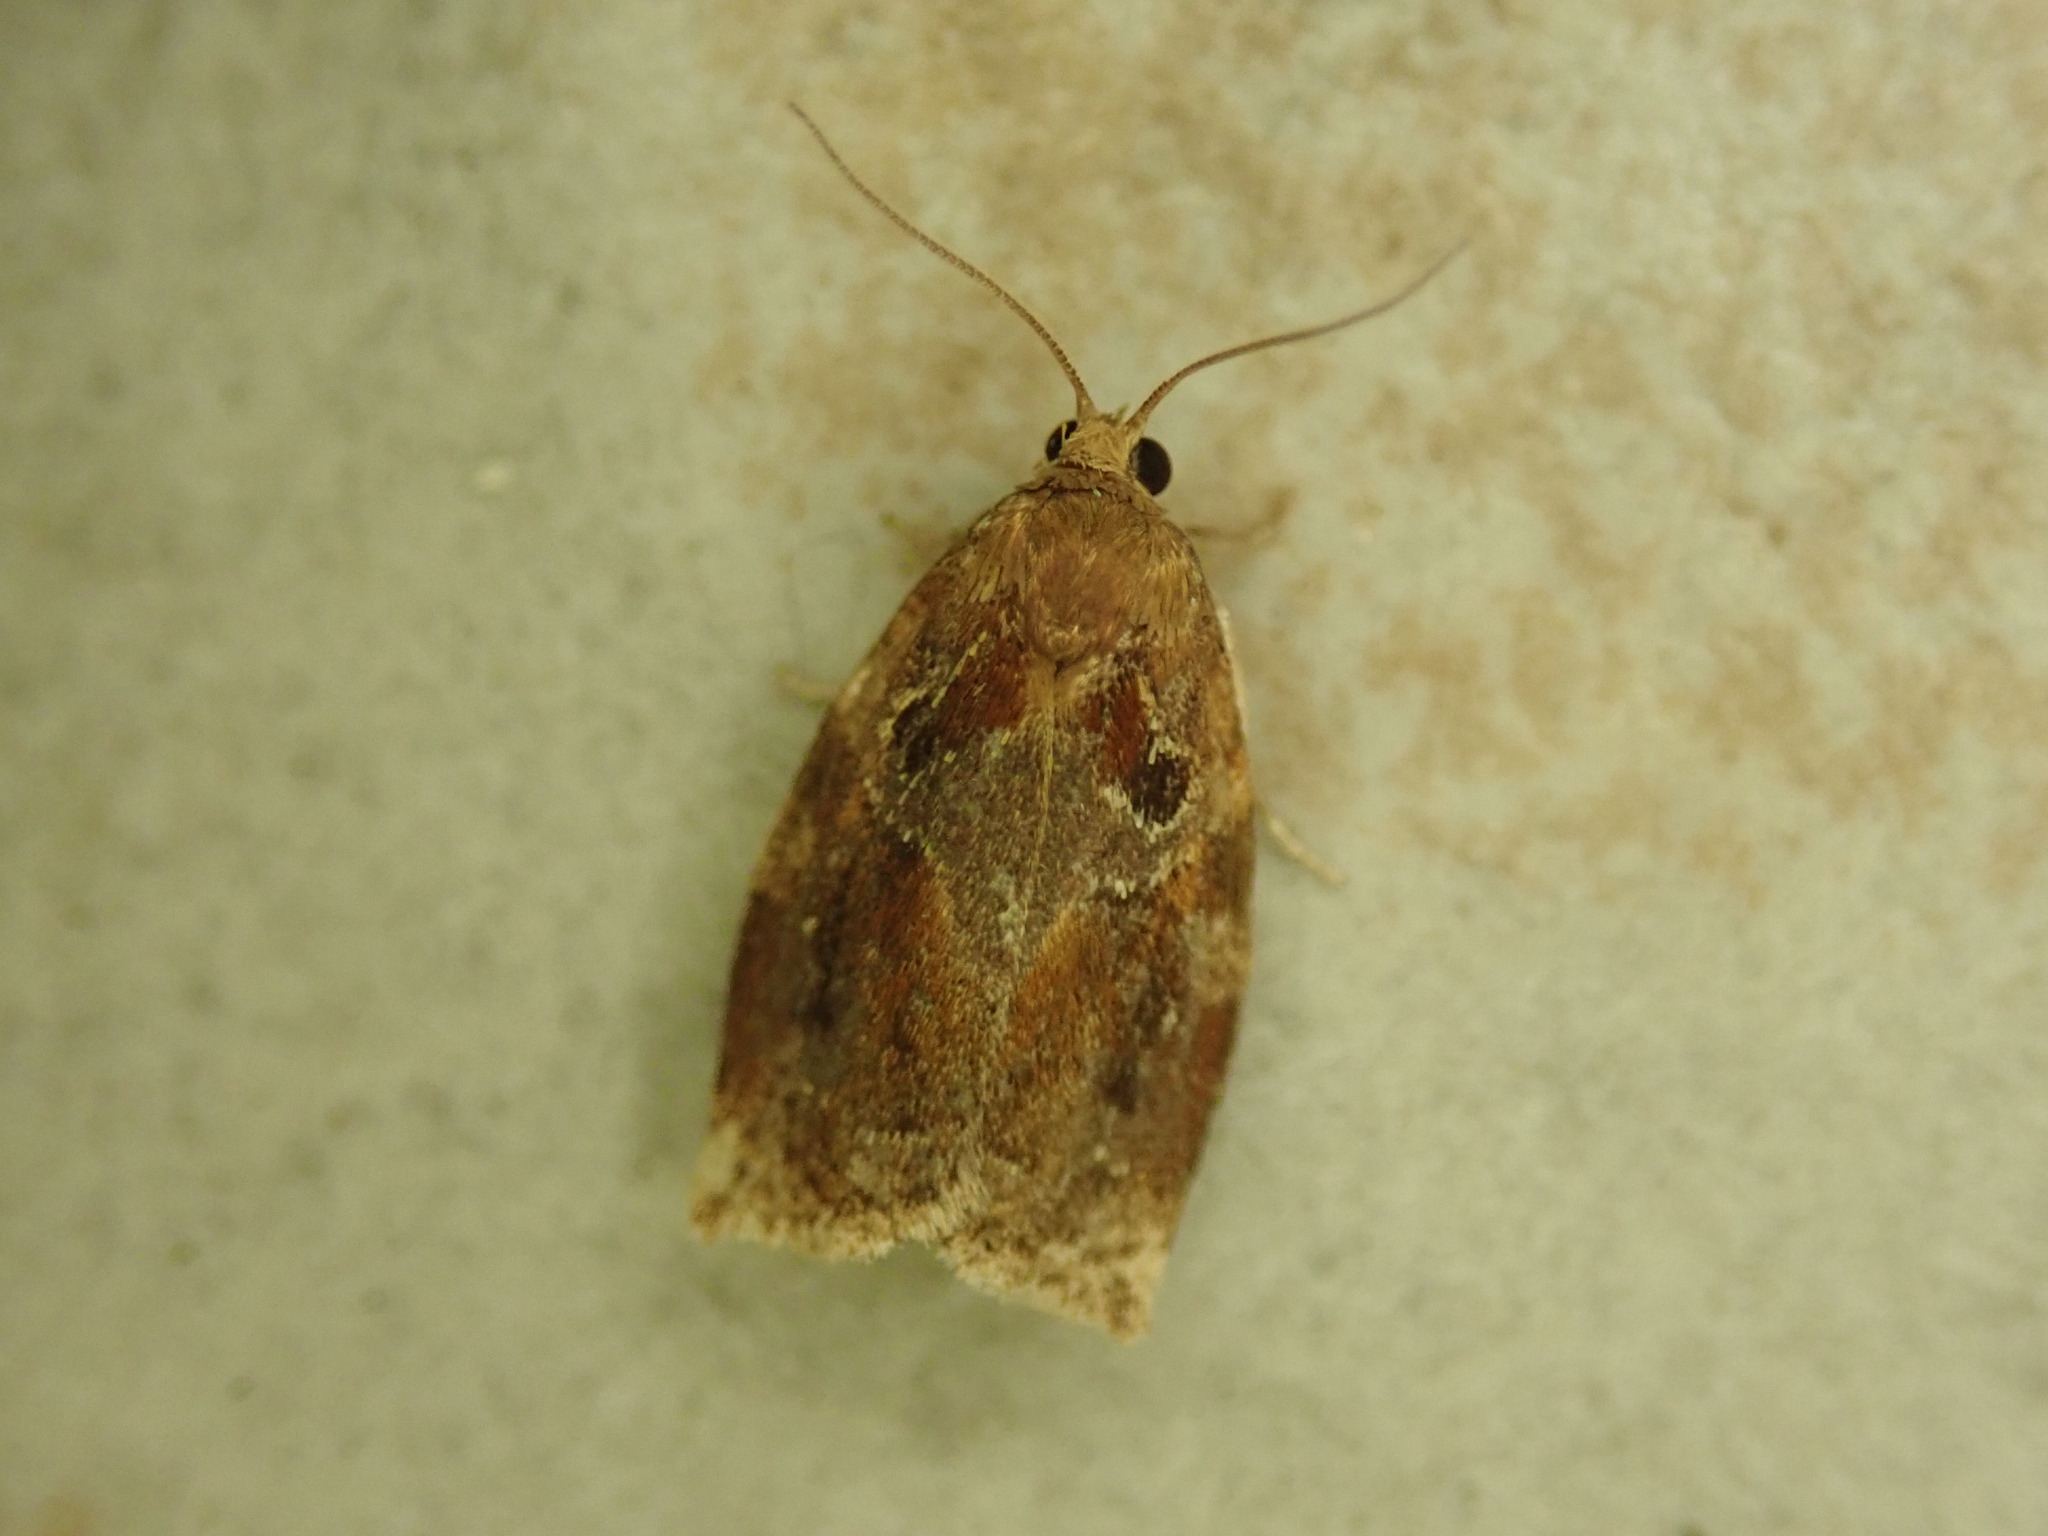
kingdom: Animalia
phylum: Arthropoda
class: Insecta
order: Lepidoptera
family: Tortricidae
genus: Archips
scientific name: Archips xylosteana
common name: Variegated golden tortrix
